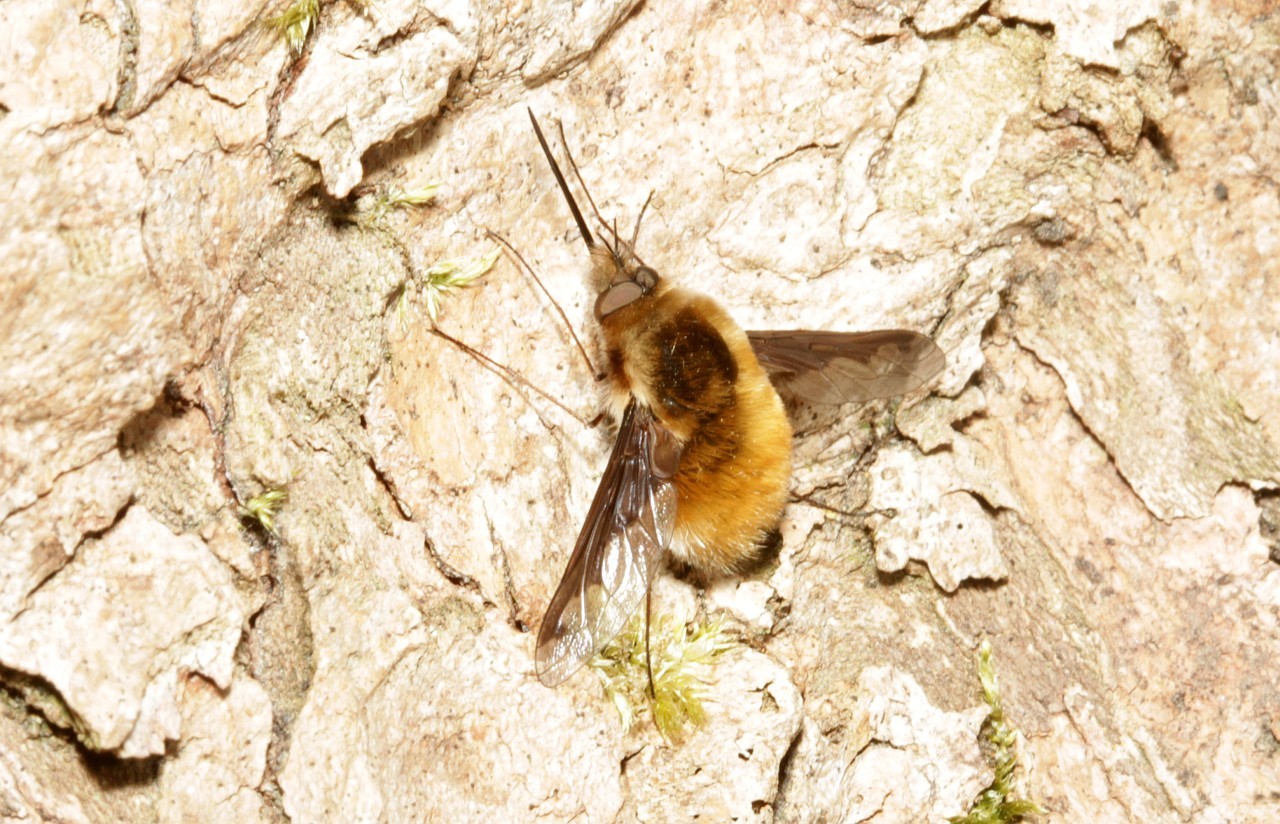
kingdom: Animalia
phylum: Arthropoda
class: Insecta
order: Diptera
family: Bombyliidae
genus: Bombylius
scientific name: Bombylius major
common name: Bee fly
